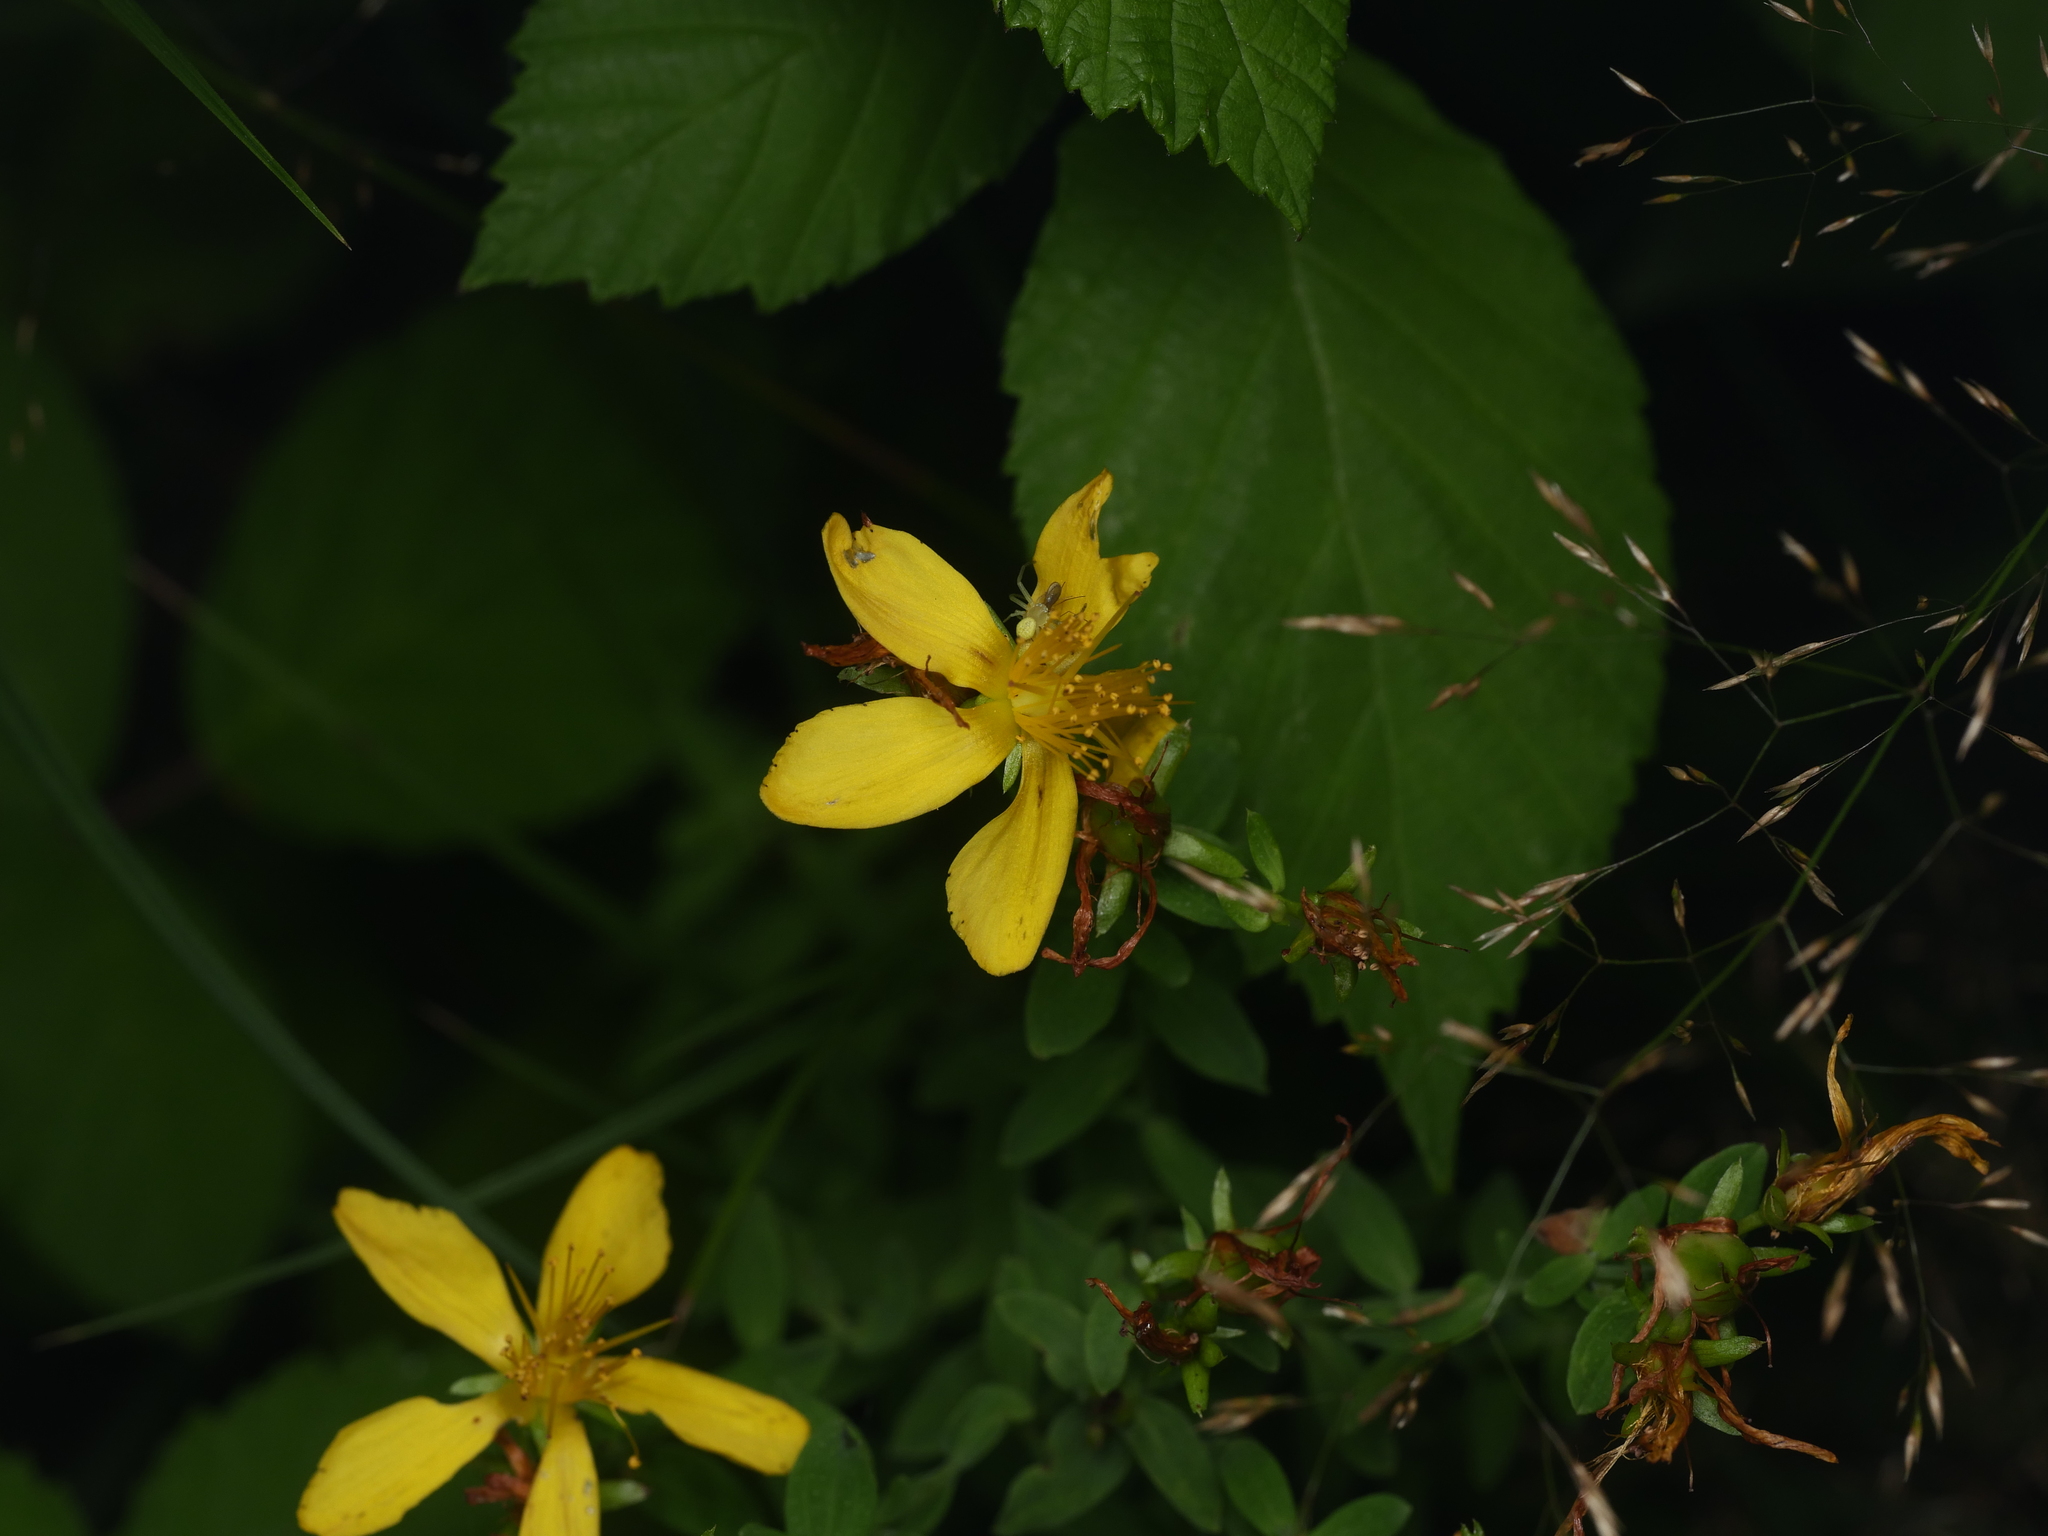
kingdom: Plantae
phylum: Tracheophyta
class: Magnoliopsida
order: Malpighiales
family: Hypericaceae
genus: Hypericum
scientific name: Hypericum perforatum
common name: Common st. johnswort
